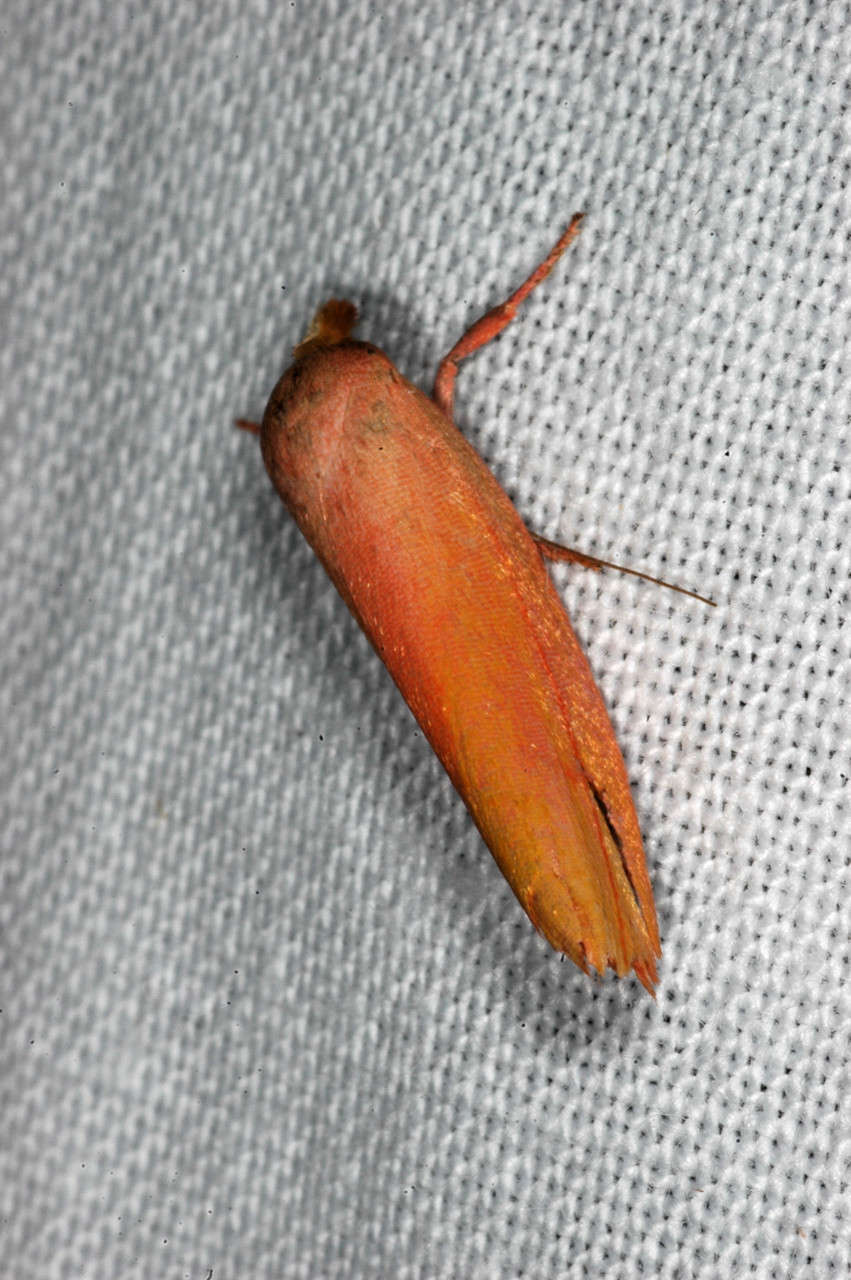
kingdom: Animalia
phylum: Arthropoda
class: Insecta
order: Lepidoptera
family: Oecophoridae
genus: Wingia
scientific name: Wingia aurata
